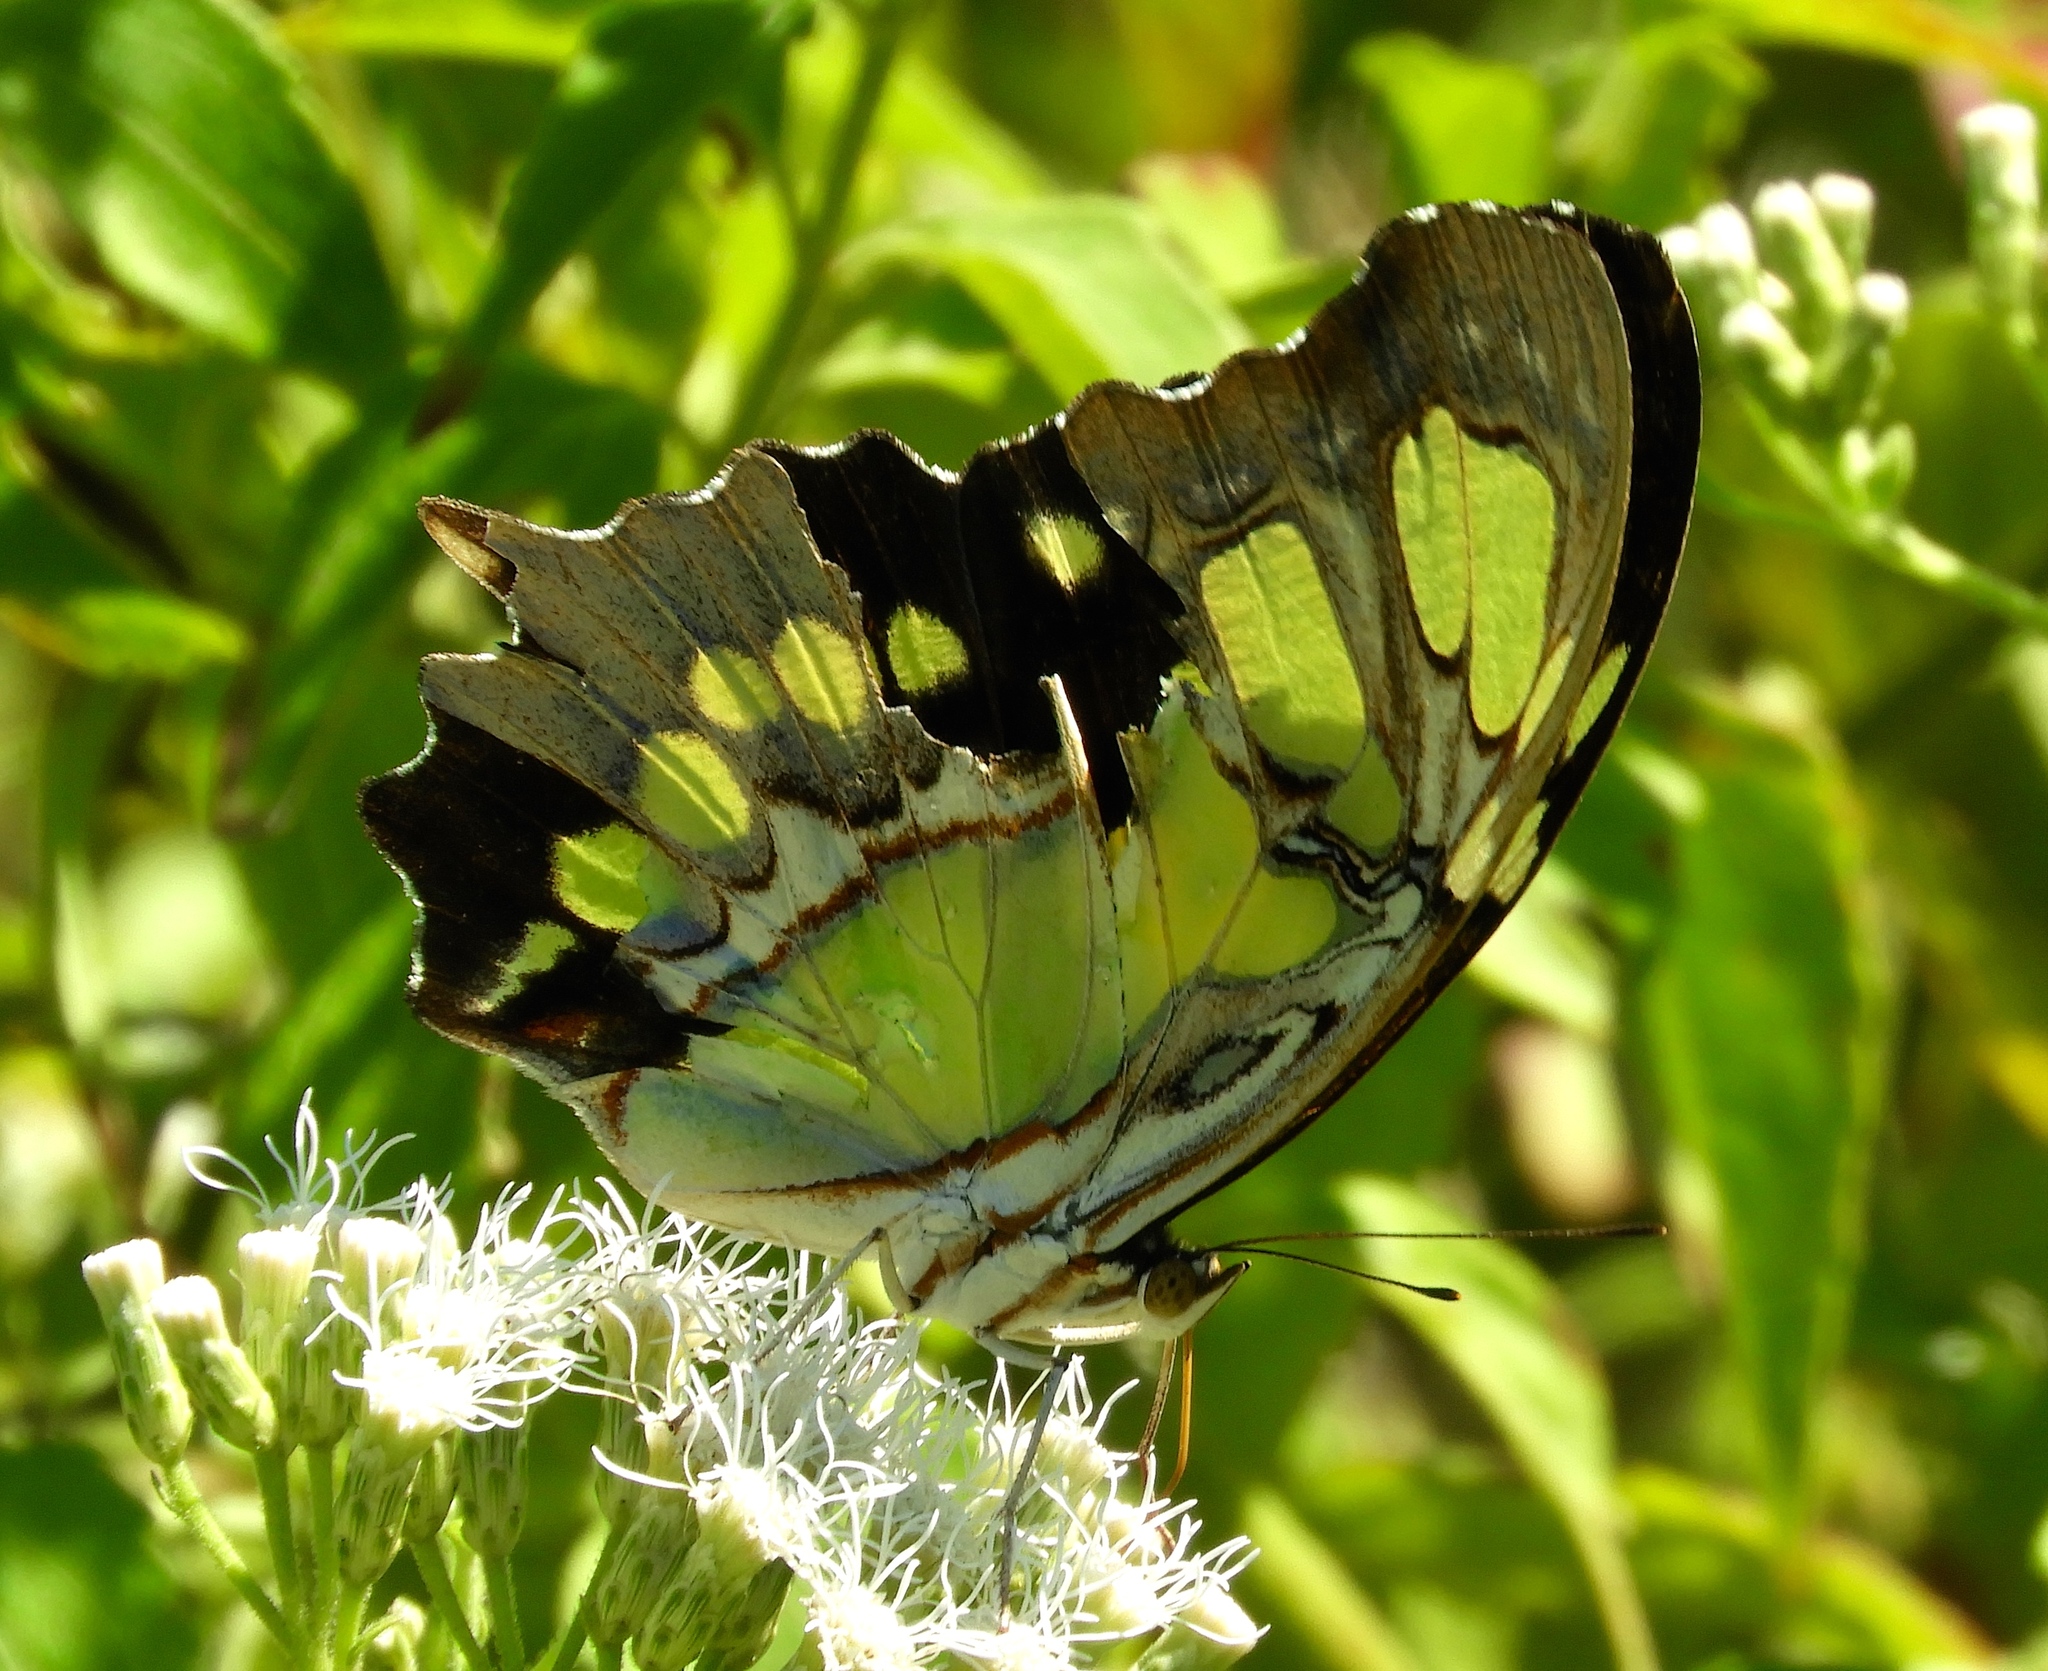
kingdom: Animalia
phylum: Arthropoda
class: Insecta
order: Lepidoptera
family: Nymphalidae
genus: Siproeta
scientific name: Siproeta stelenes
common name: Malachite
